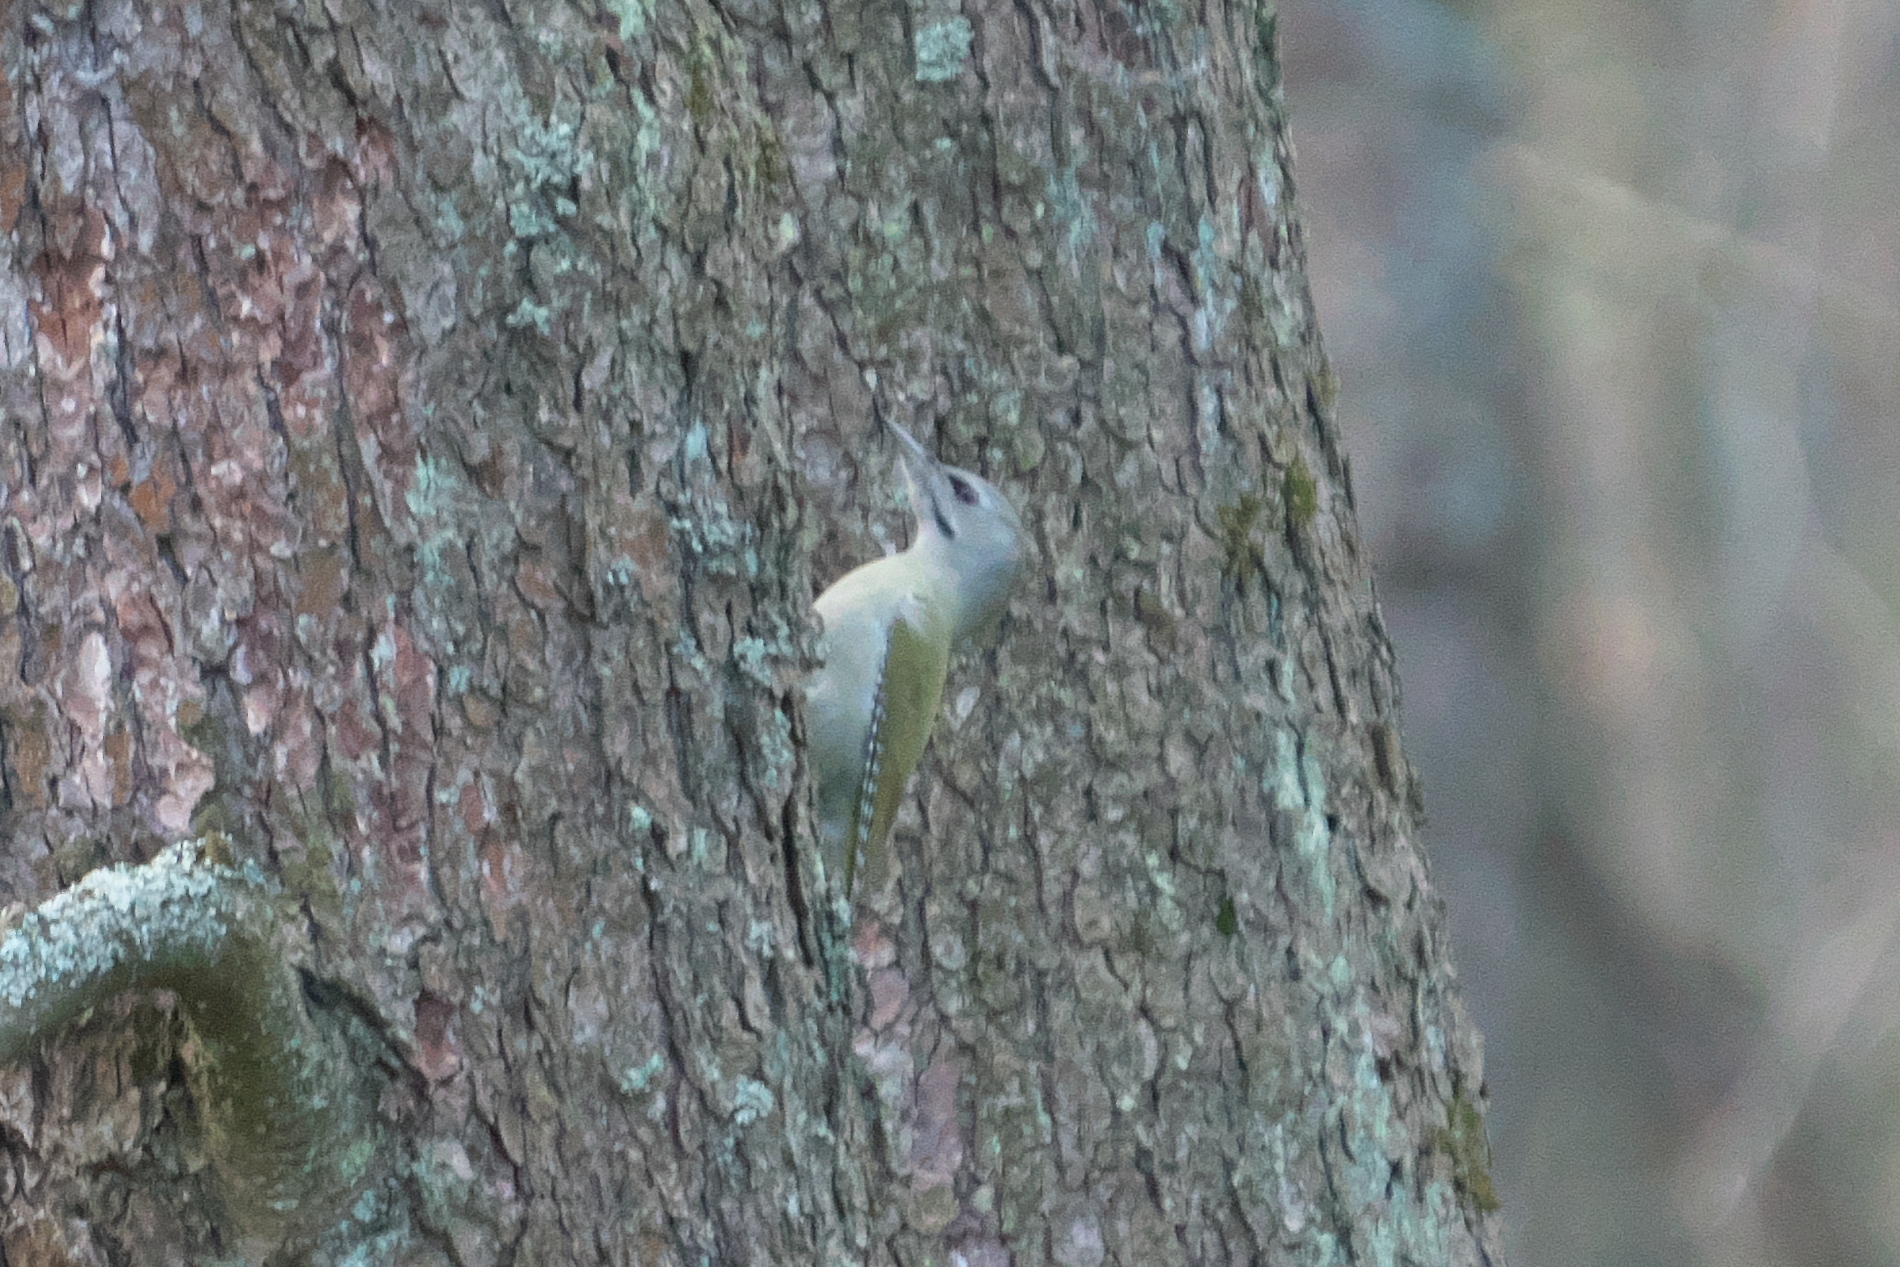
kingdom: Animalia
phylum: Chordata
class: Aves
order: Piciformes
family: Picidae
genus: Picus
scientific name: Picus canus
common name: Grey-headed woodpecker
